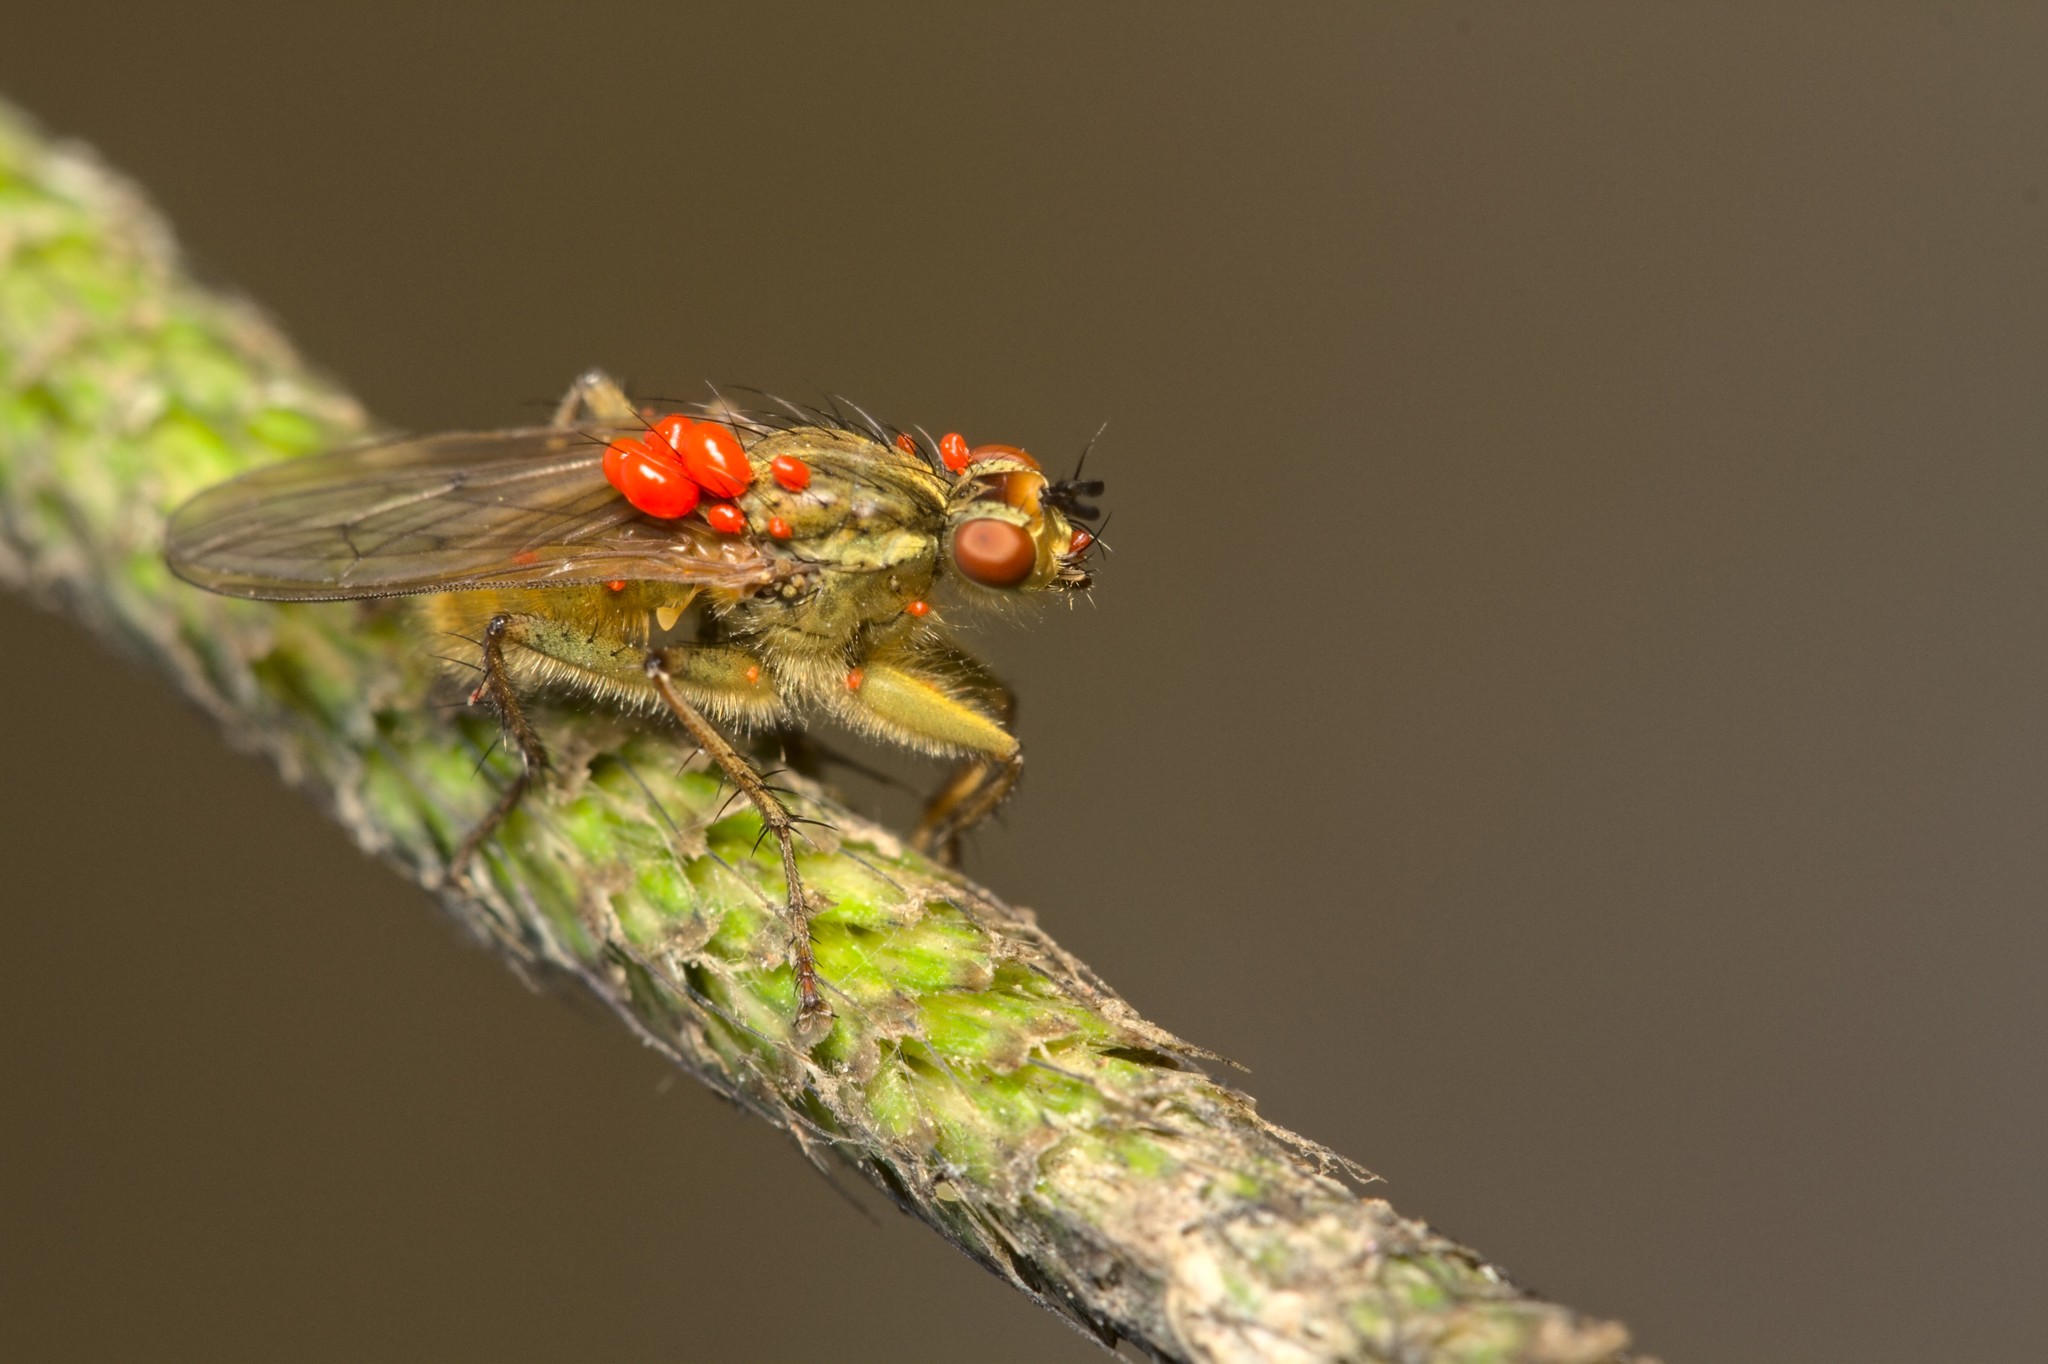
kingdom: Animalia
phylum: Arthropoda
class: Insecta
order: Diptera
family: Scathophagidae
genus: Scathophaga
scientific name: Scathophaga stercoraria
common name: Yellow dung fly
